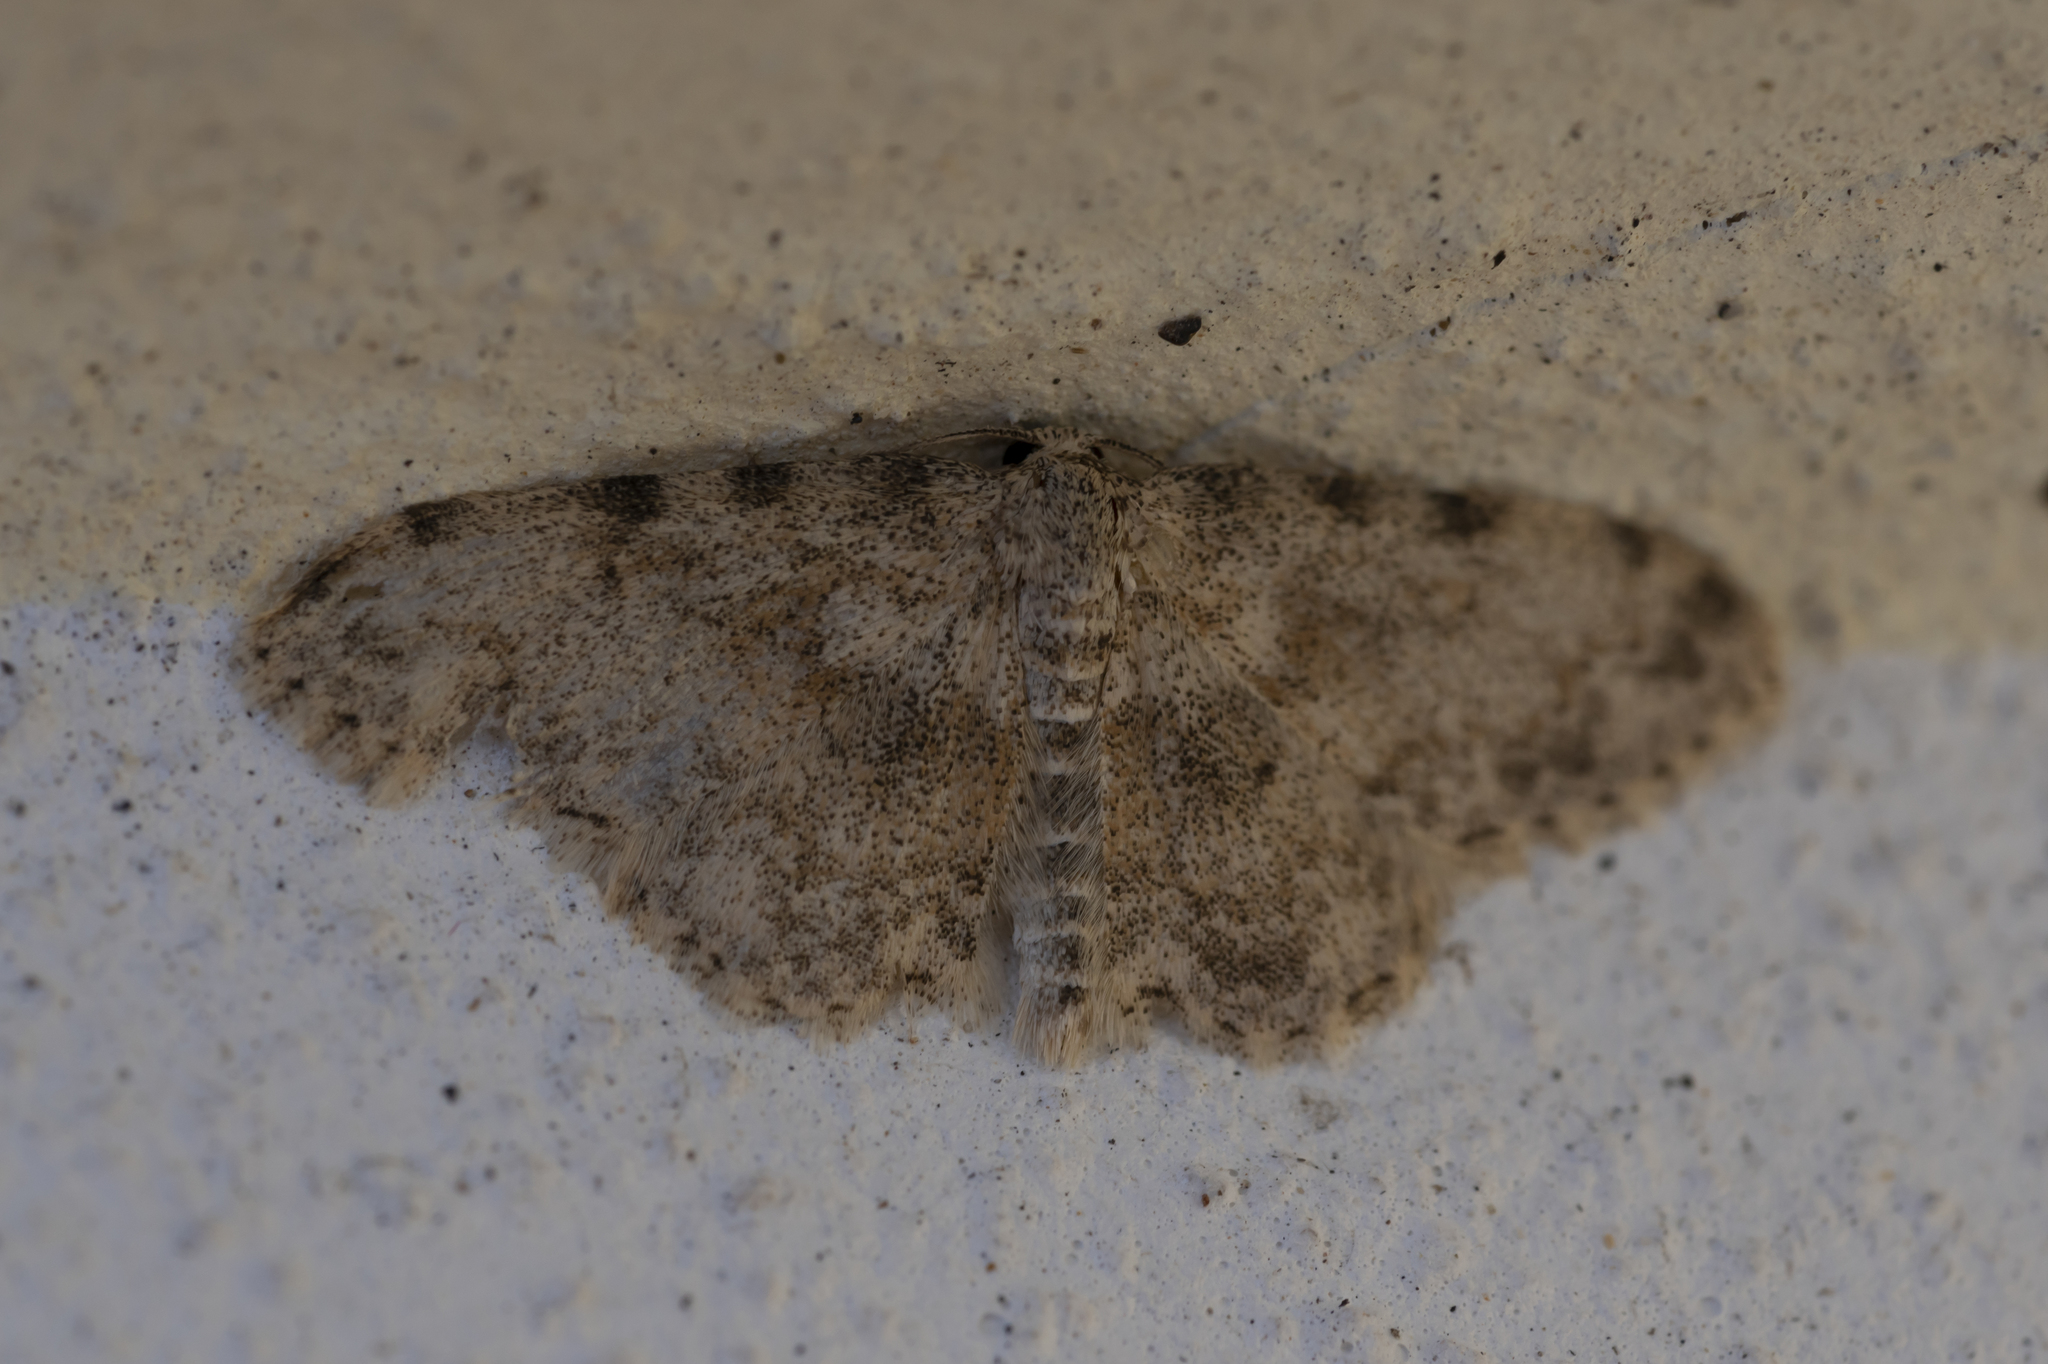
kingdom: Animalia
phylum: Arthropoda
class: Insecta
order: Lepidoptera
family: Geometridae
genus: Scopula
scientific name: Scopula luridata
